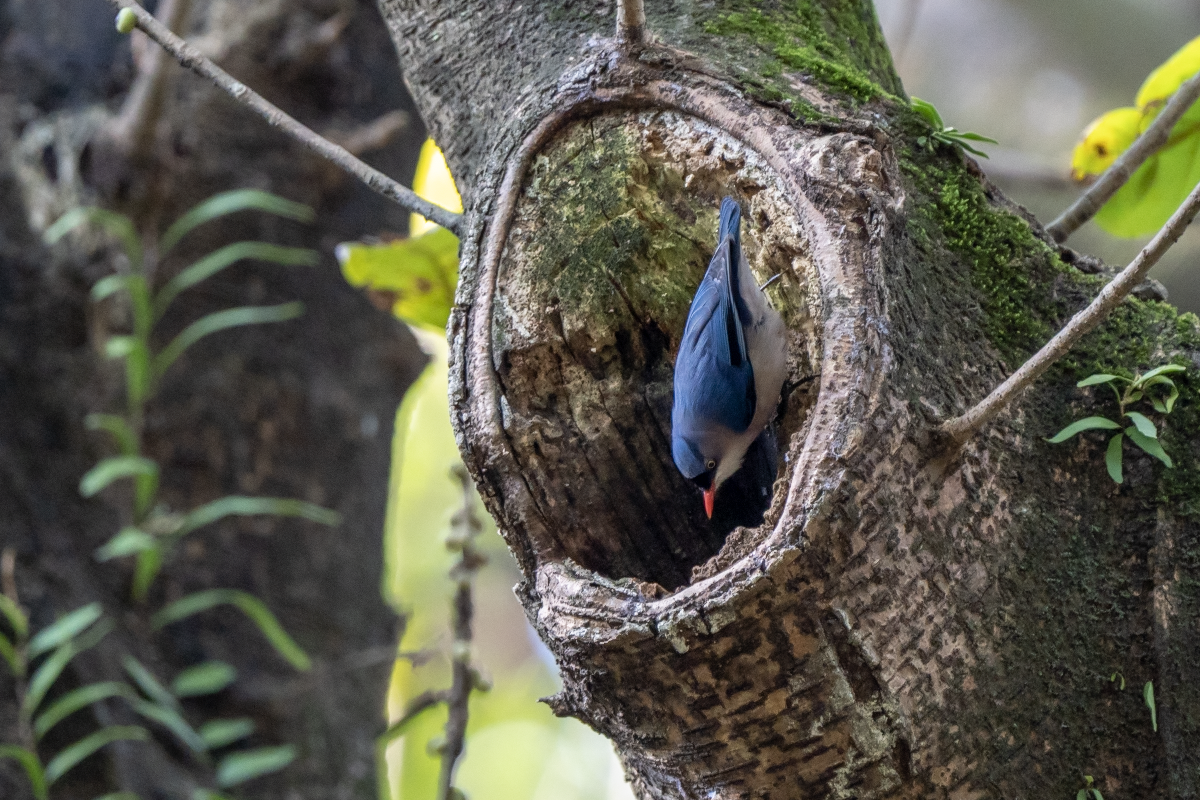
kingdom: Animalia
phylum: Chordata
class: Aves
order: Passeriformes
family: Sittidae
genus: Sitta
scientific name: Sitta frontalis
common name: Velvet-fronted nuthatch
